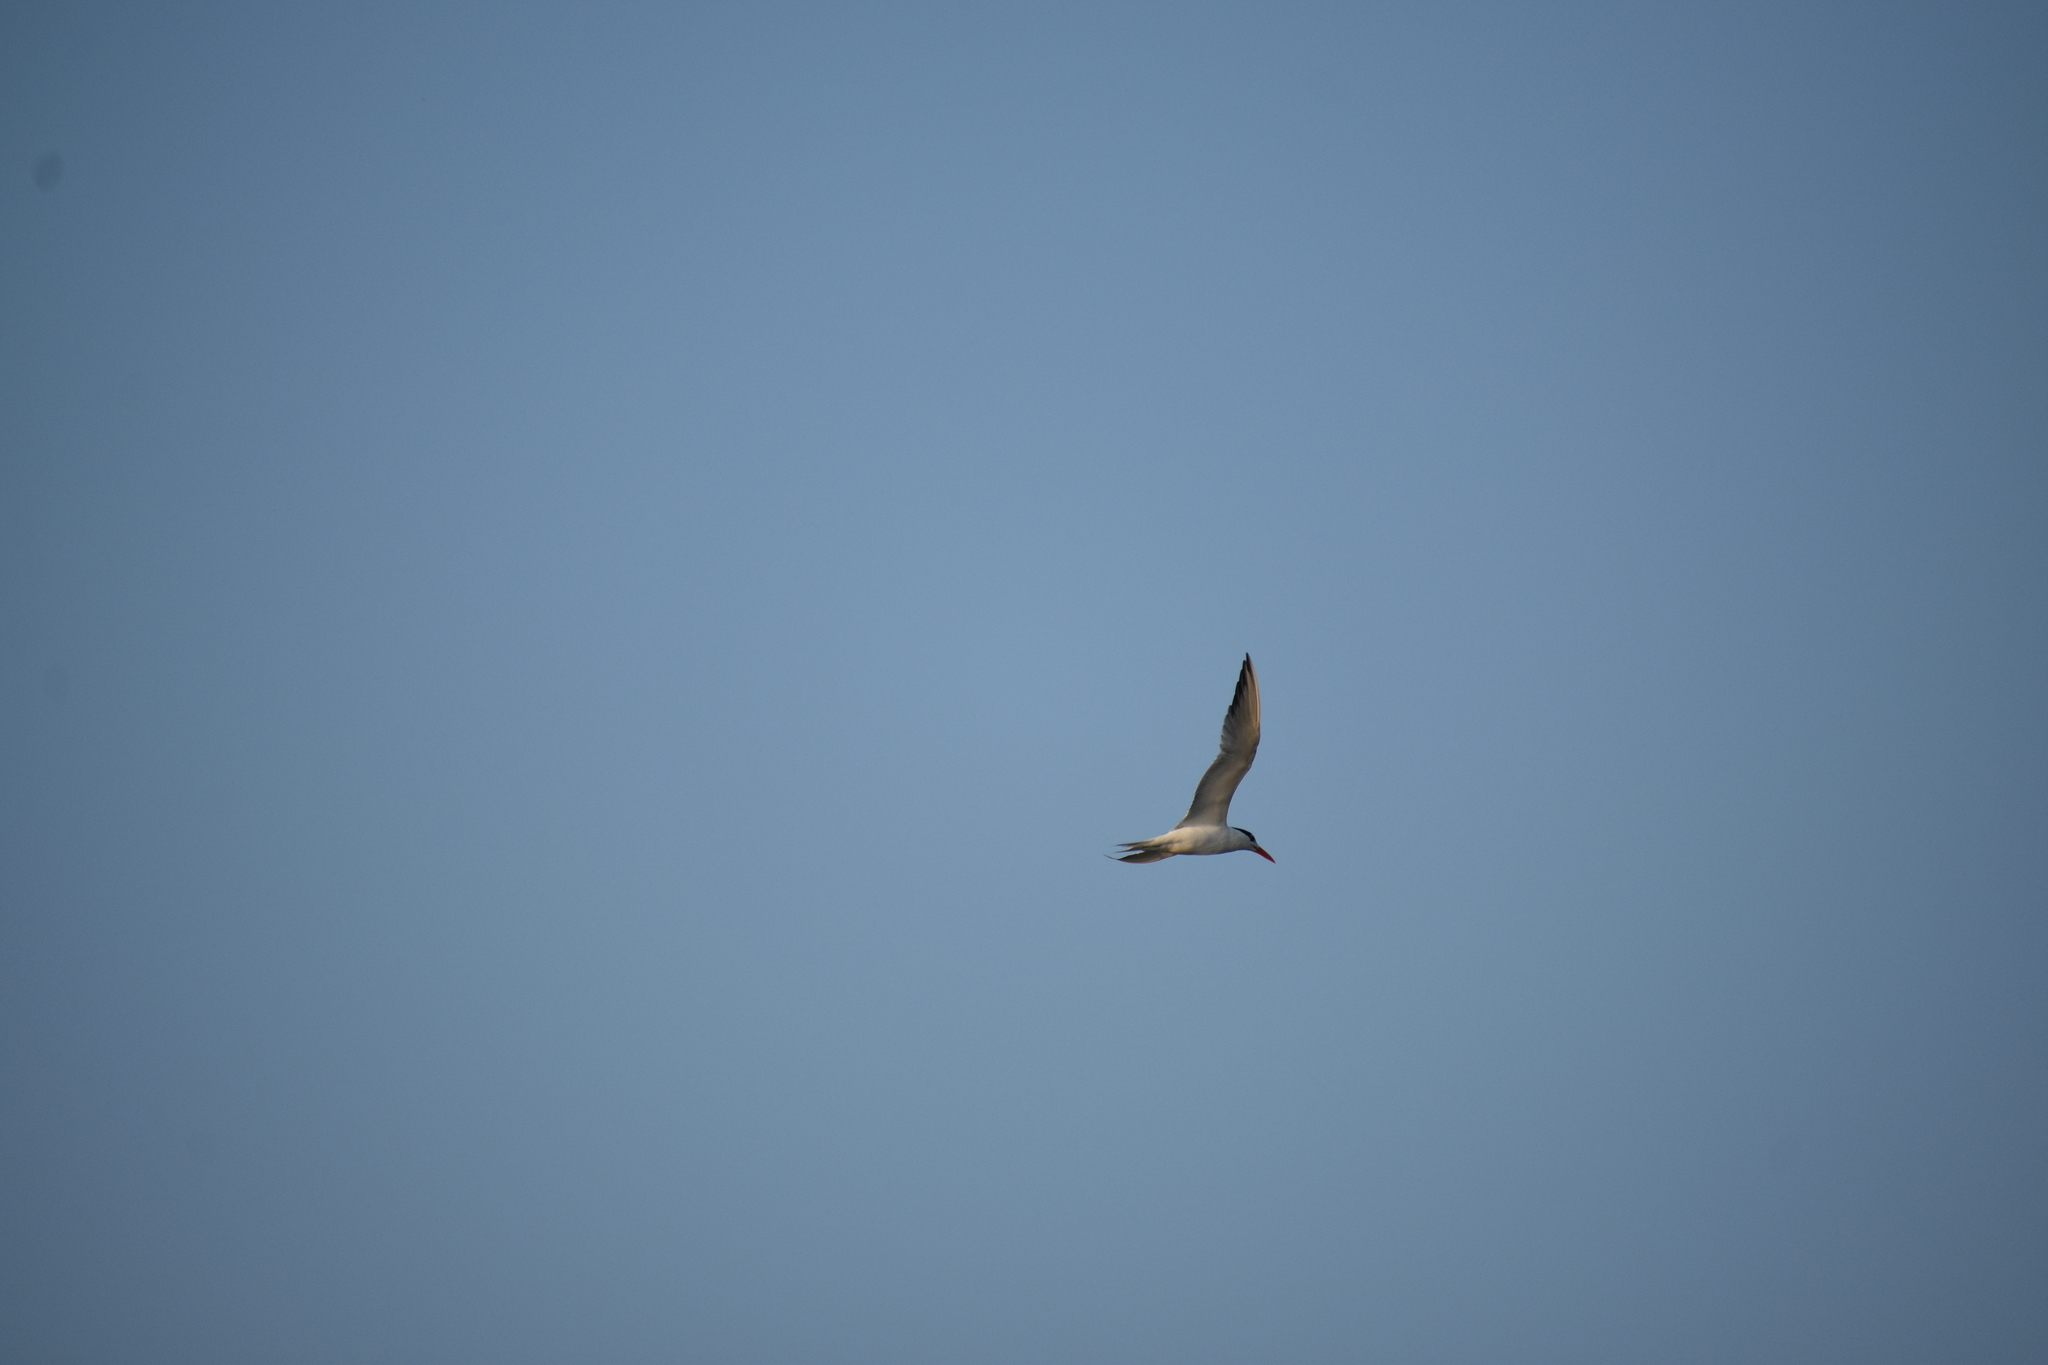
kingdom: Animalia
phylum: Chordata
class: Aves
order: Charadriiformes
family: Laridae
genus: Thalasseus
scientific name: Thalasseus maximus
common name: Royal tern
